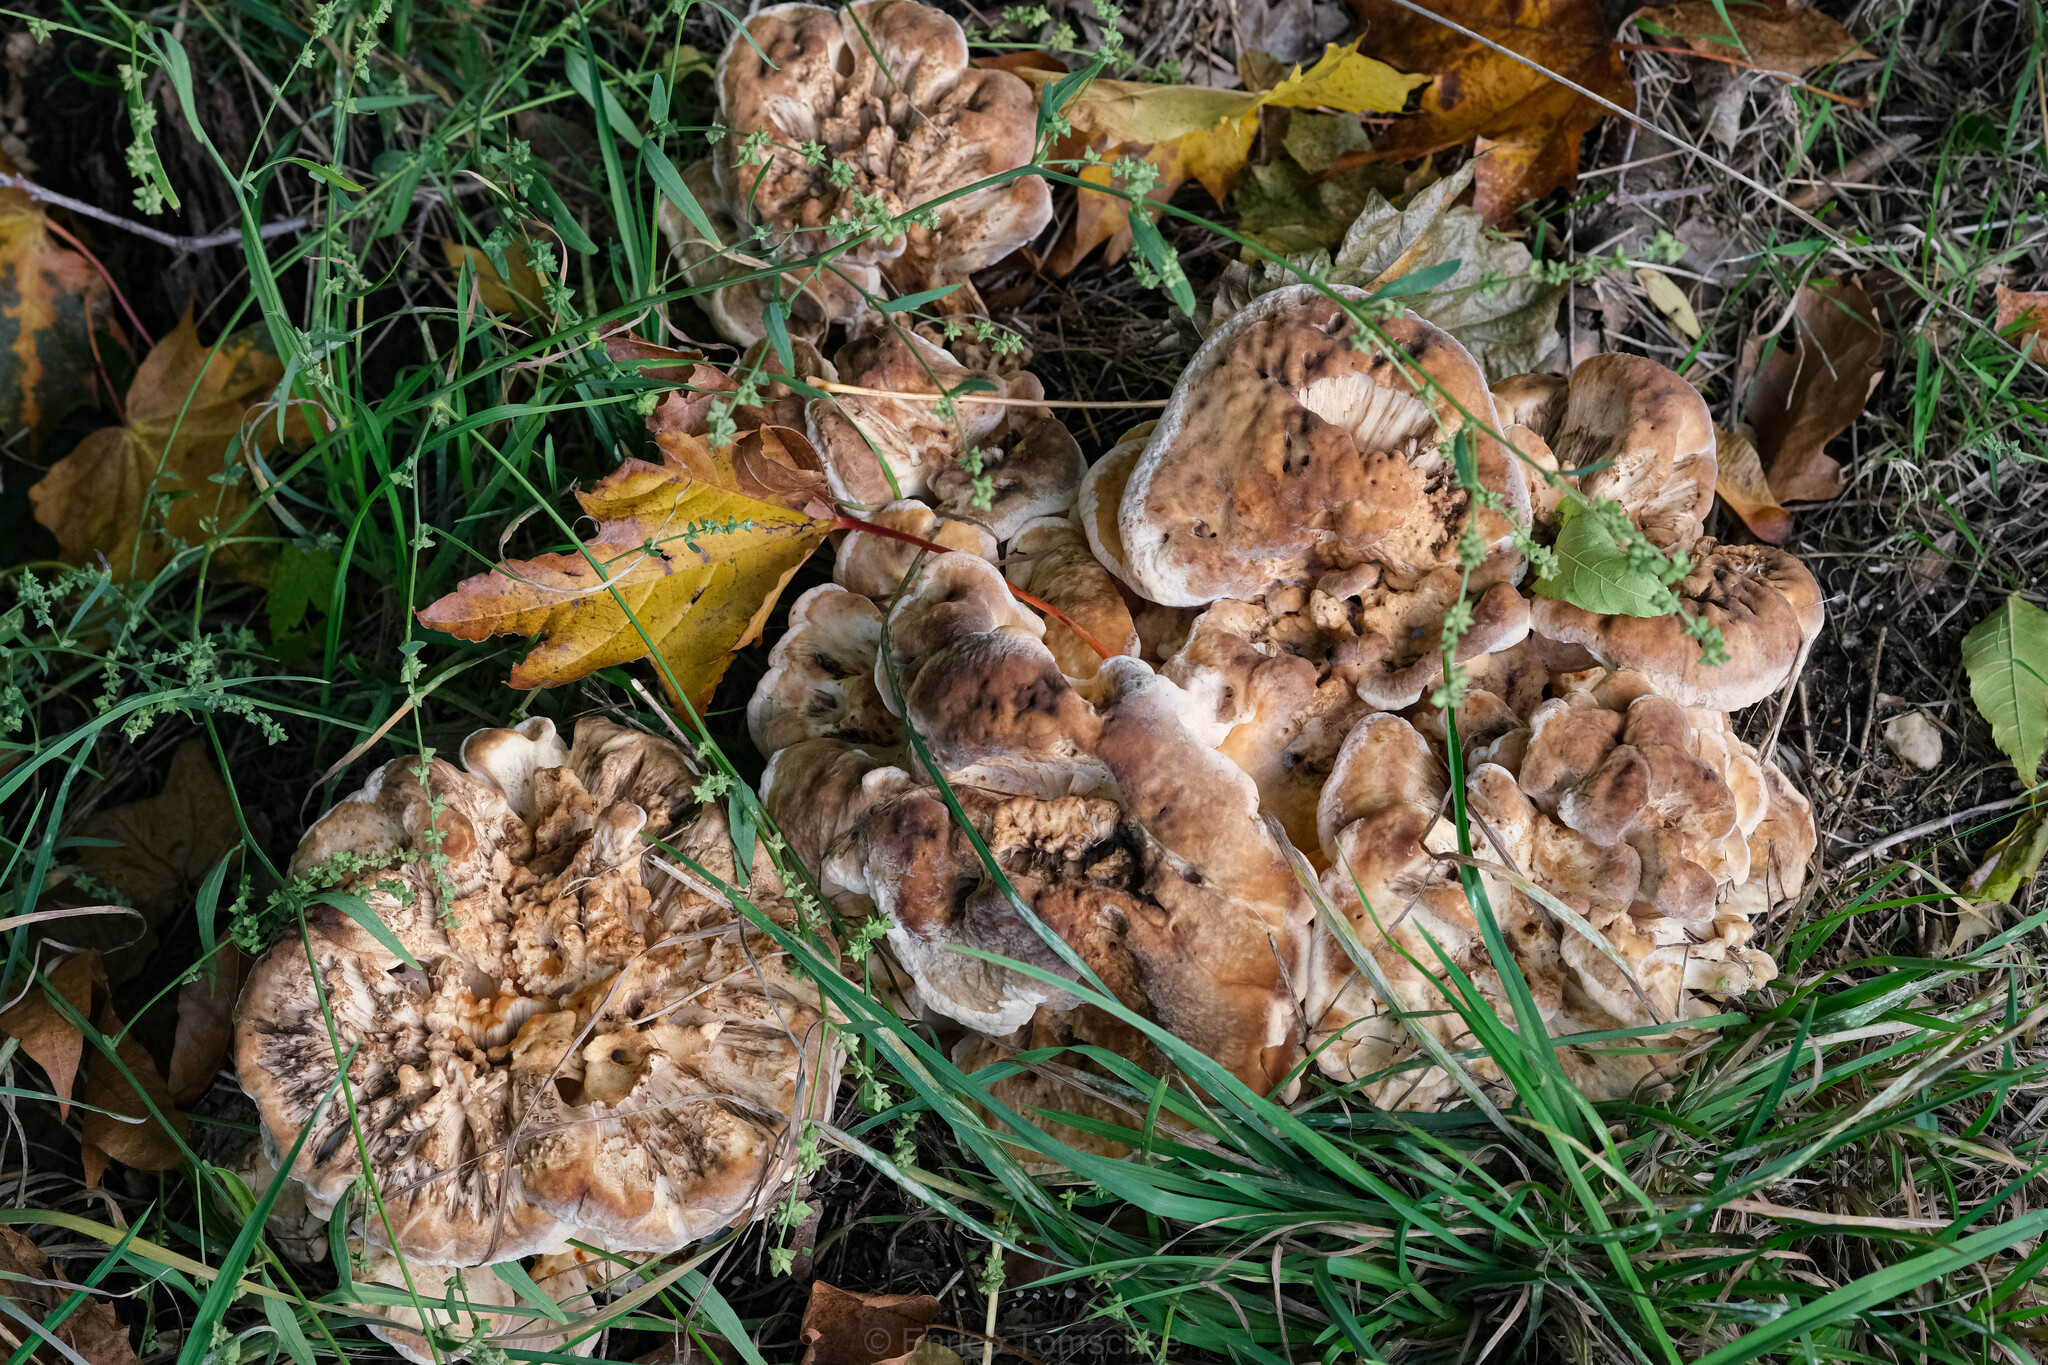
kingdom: Fungi
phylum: Basidiomycota
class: Agaricomycetes
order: Polyporales
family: Meripilaceae
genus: Meripilus
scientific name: Meripilus giganteus
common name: Giant polypore
